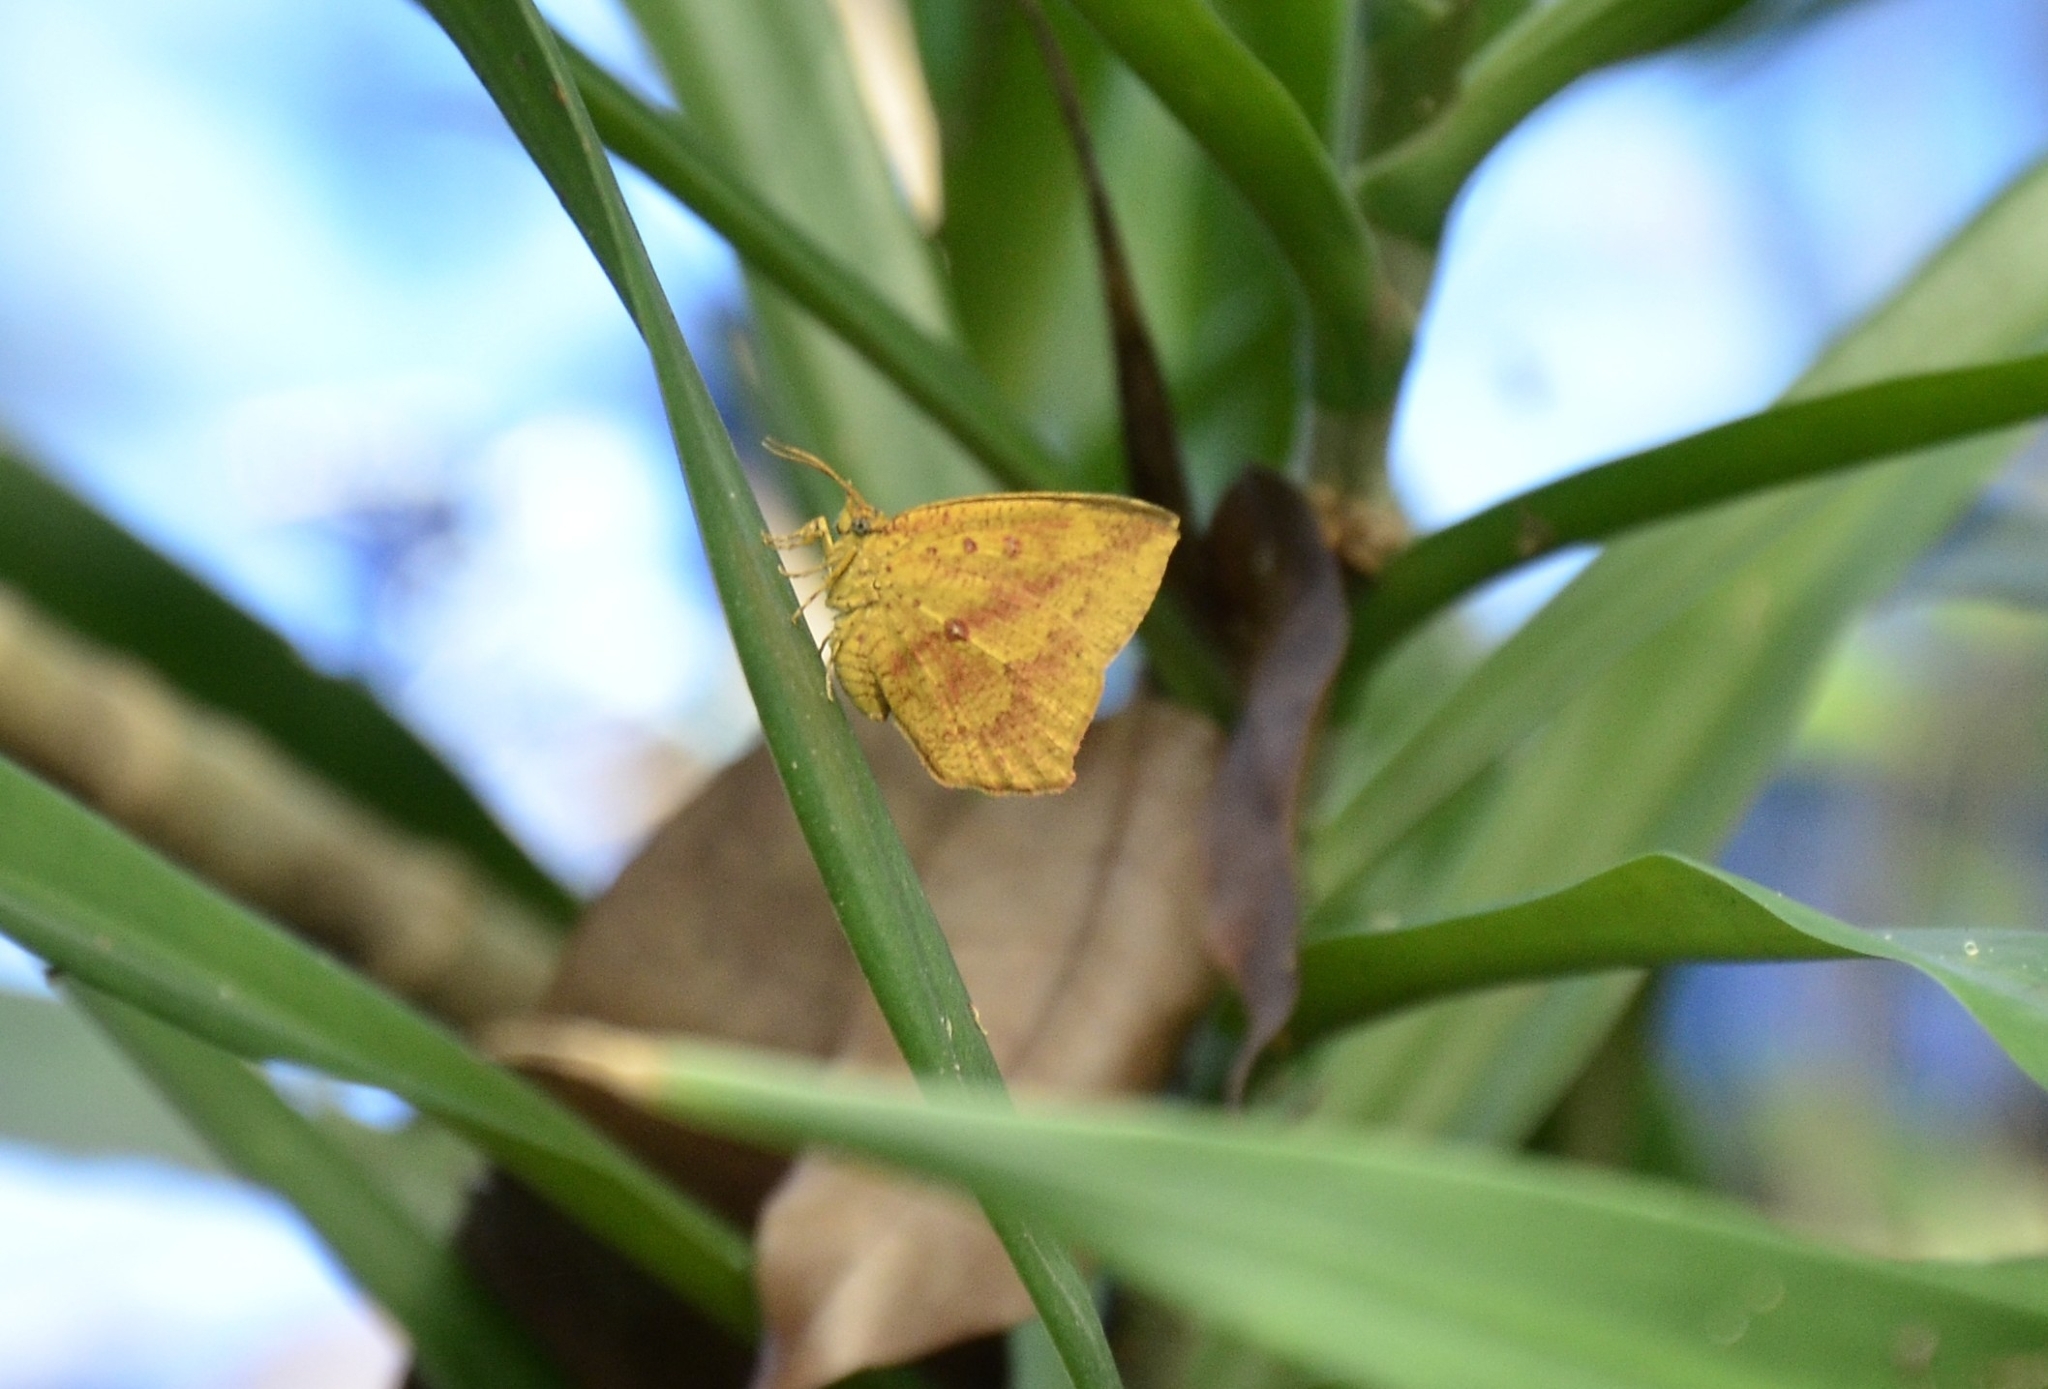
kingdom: Animalia
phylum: Arthropoda
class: Insecta
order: Lepidoptera
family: Callidulidae
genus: Tetragonus
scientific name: Tetragonus catamitus
